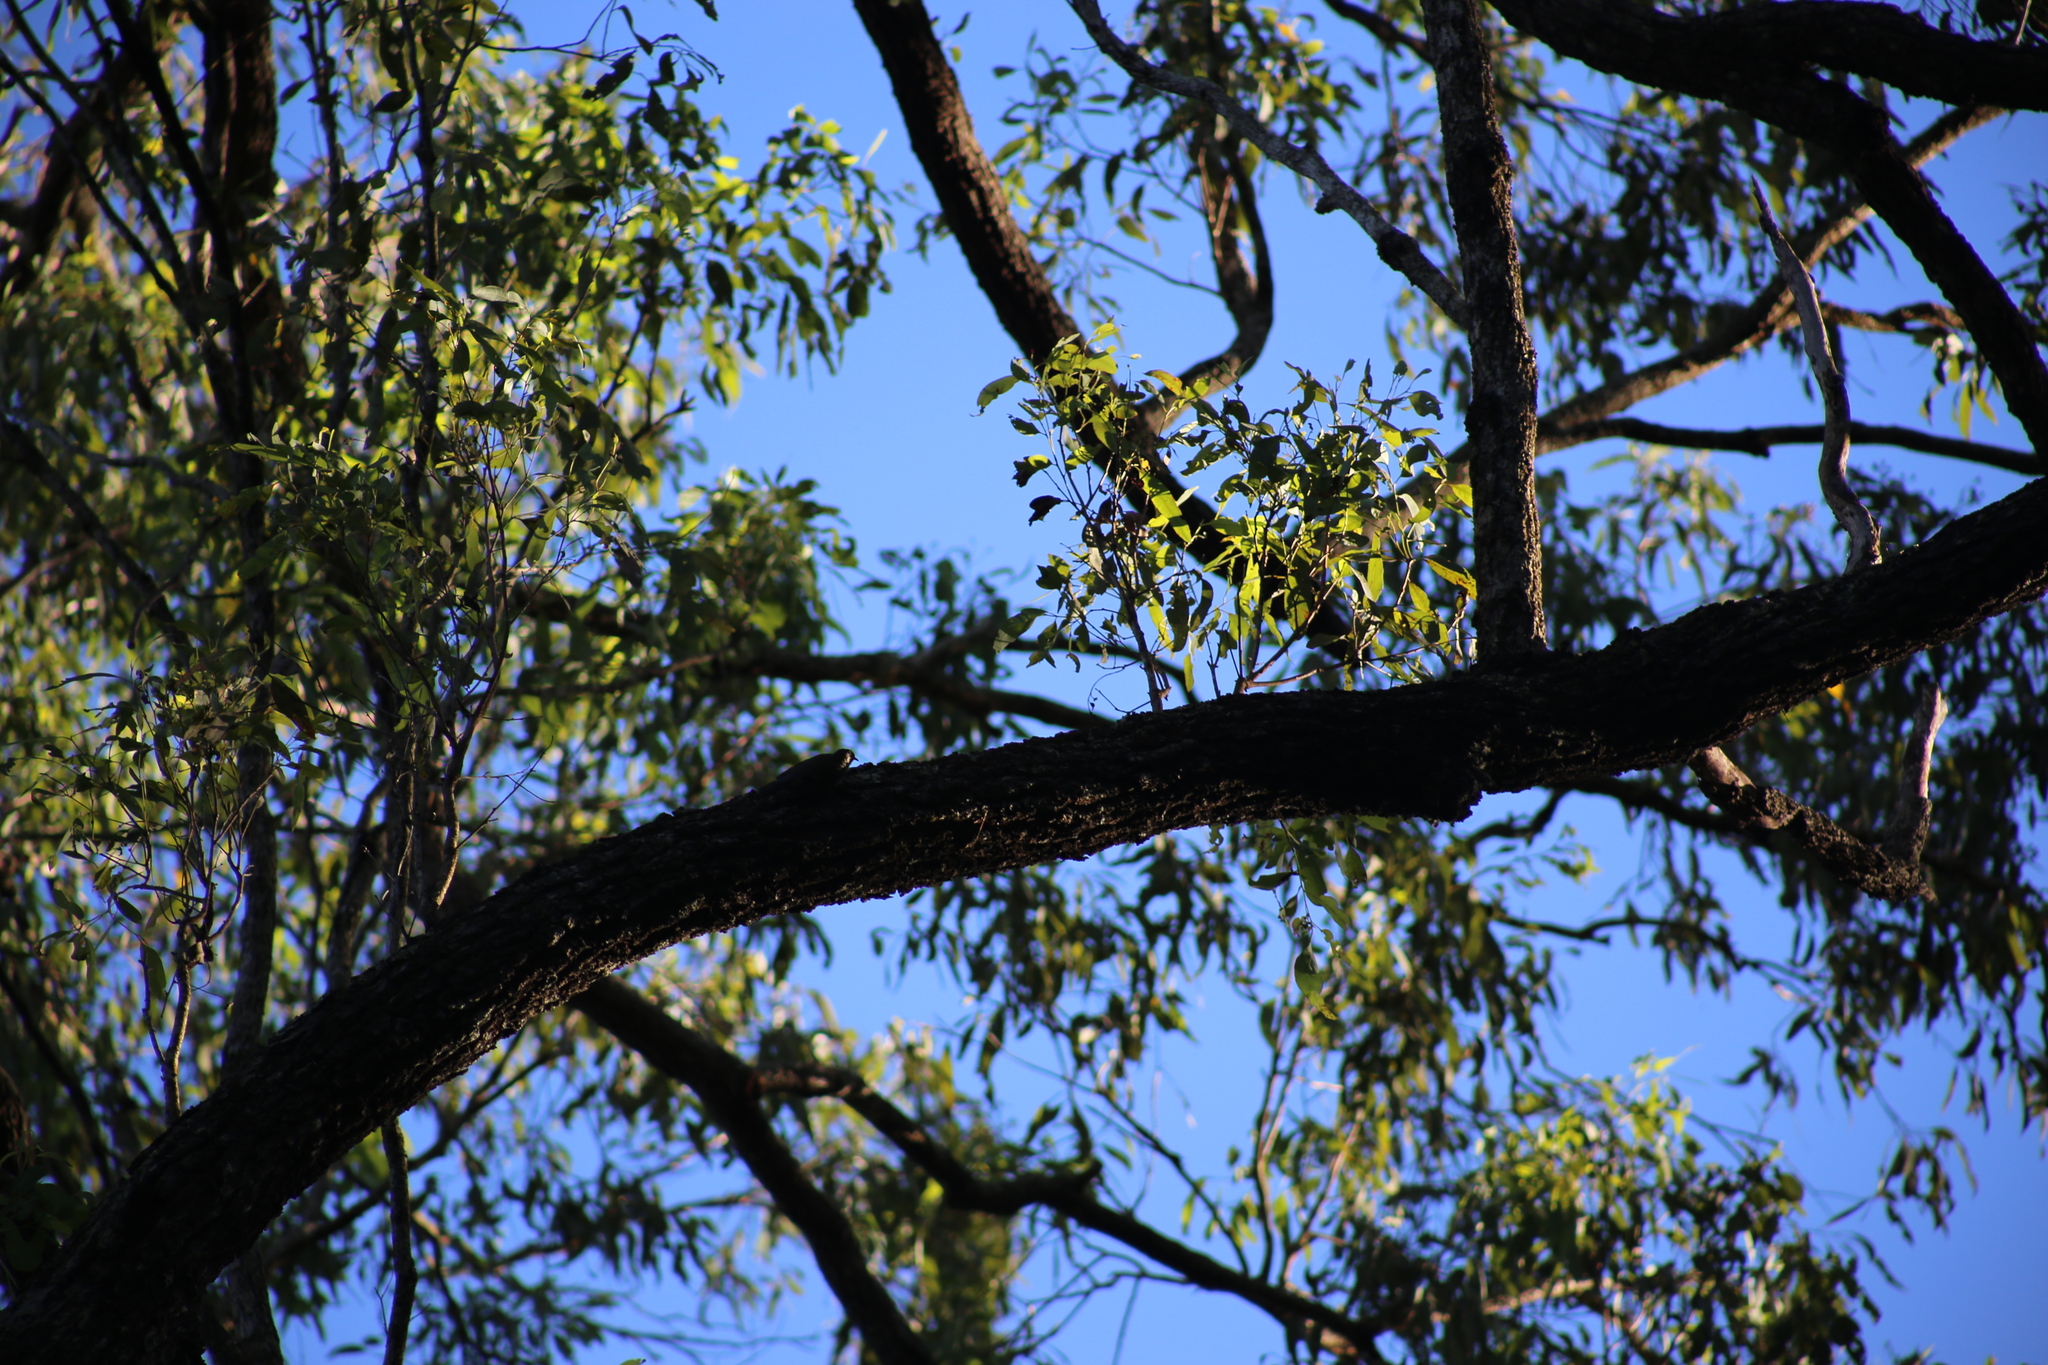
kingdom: Animalia
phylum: Chordata
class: Aves
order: Passeriformes
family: Climacteridae
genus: Cormobates
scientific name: Cormobates leucophaea
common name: White-throated treecreeper
